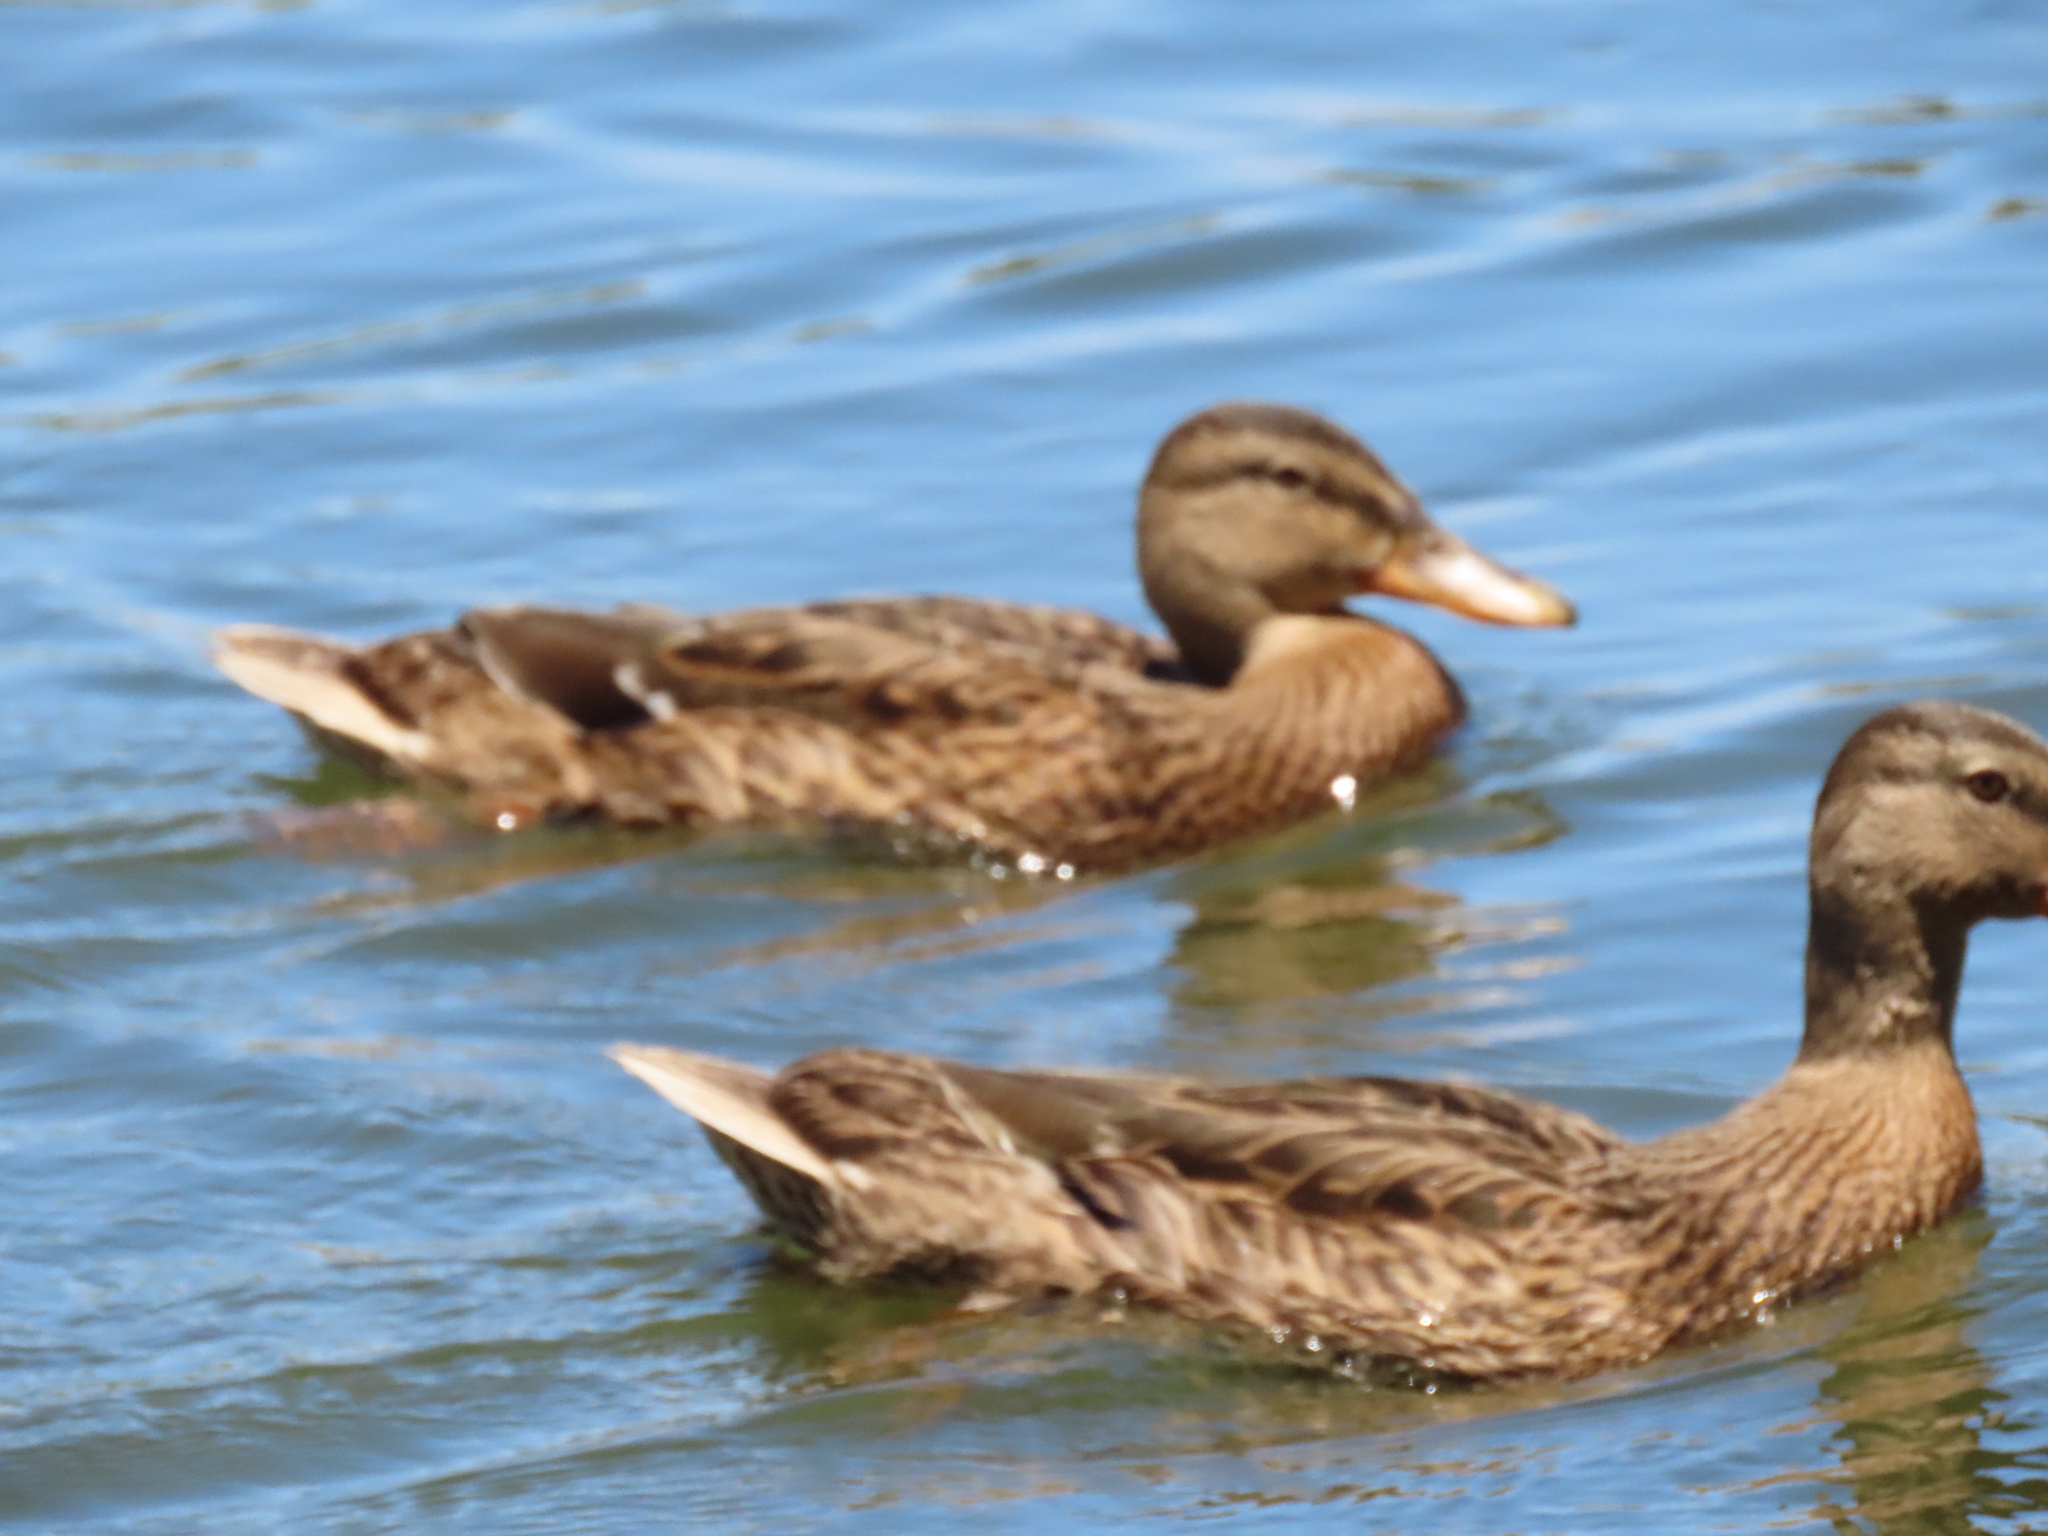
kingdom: Animalia
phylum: Chordata
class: Aves
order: Anseriformes
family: Anatidae
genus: Anas
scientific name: Anas platyrhynchos
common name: Mallard
